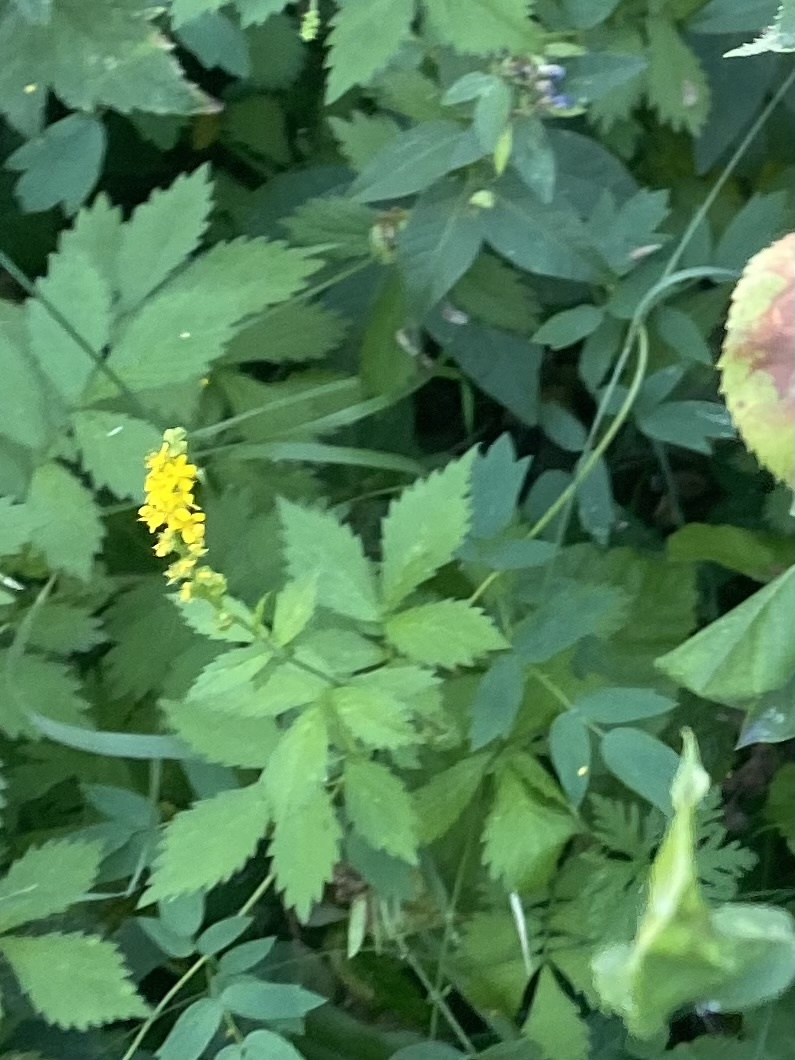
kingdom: Plantae
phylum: Tracheophyta
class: Magnoliopsida
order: Rosales
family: Rosaceae
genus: Agrimonia
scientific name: Agrimonia pilosa
